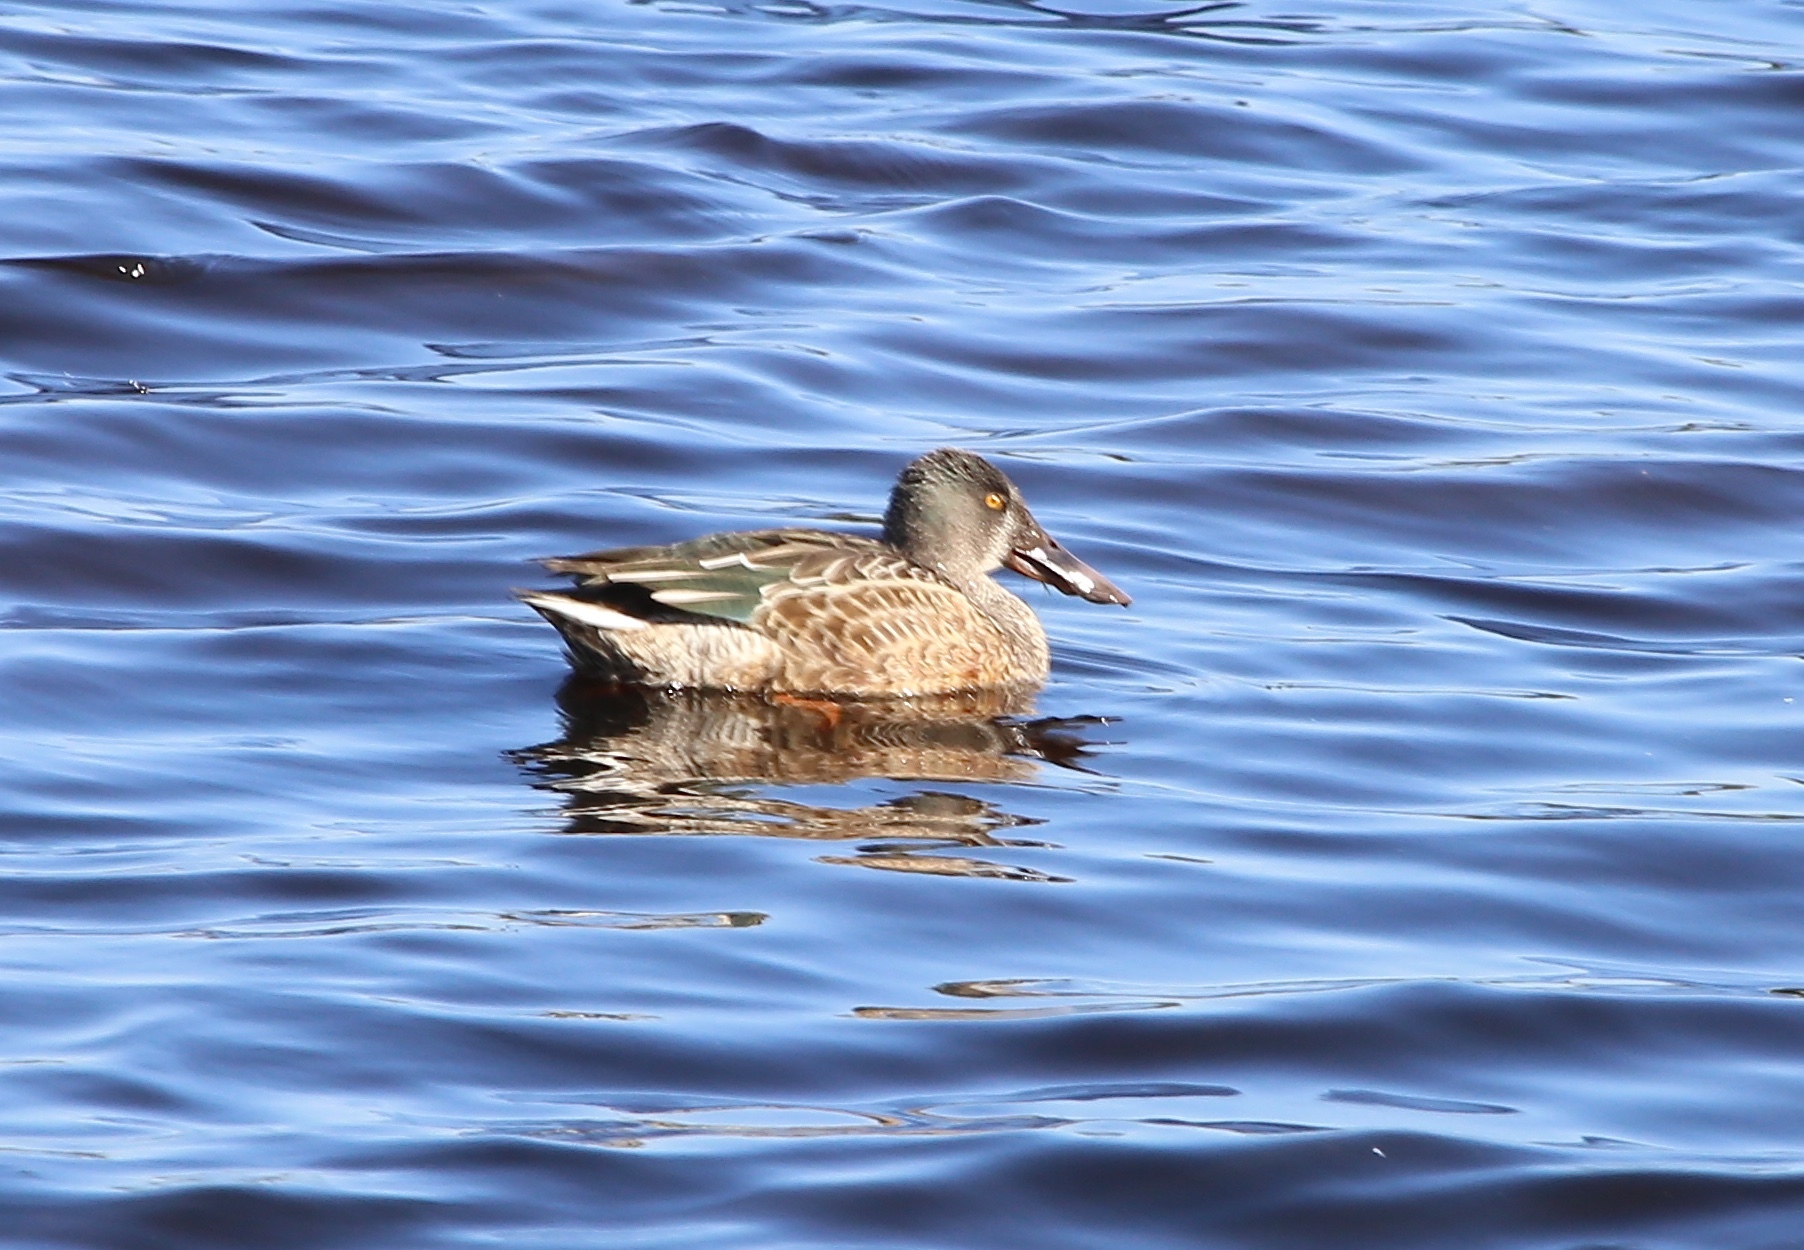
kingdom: Animalia
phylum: Chordata
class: Aves
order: Anseriformes
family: Anatidae
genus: Spatula
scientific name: Spatula clypeata
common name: Northern shoveler
